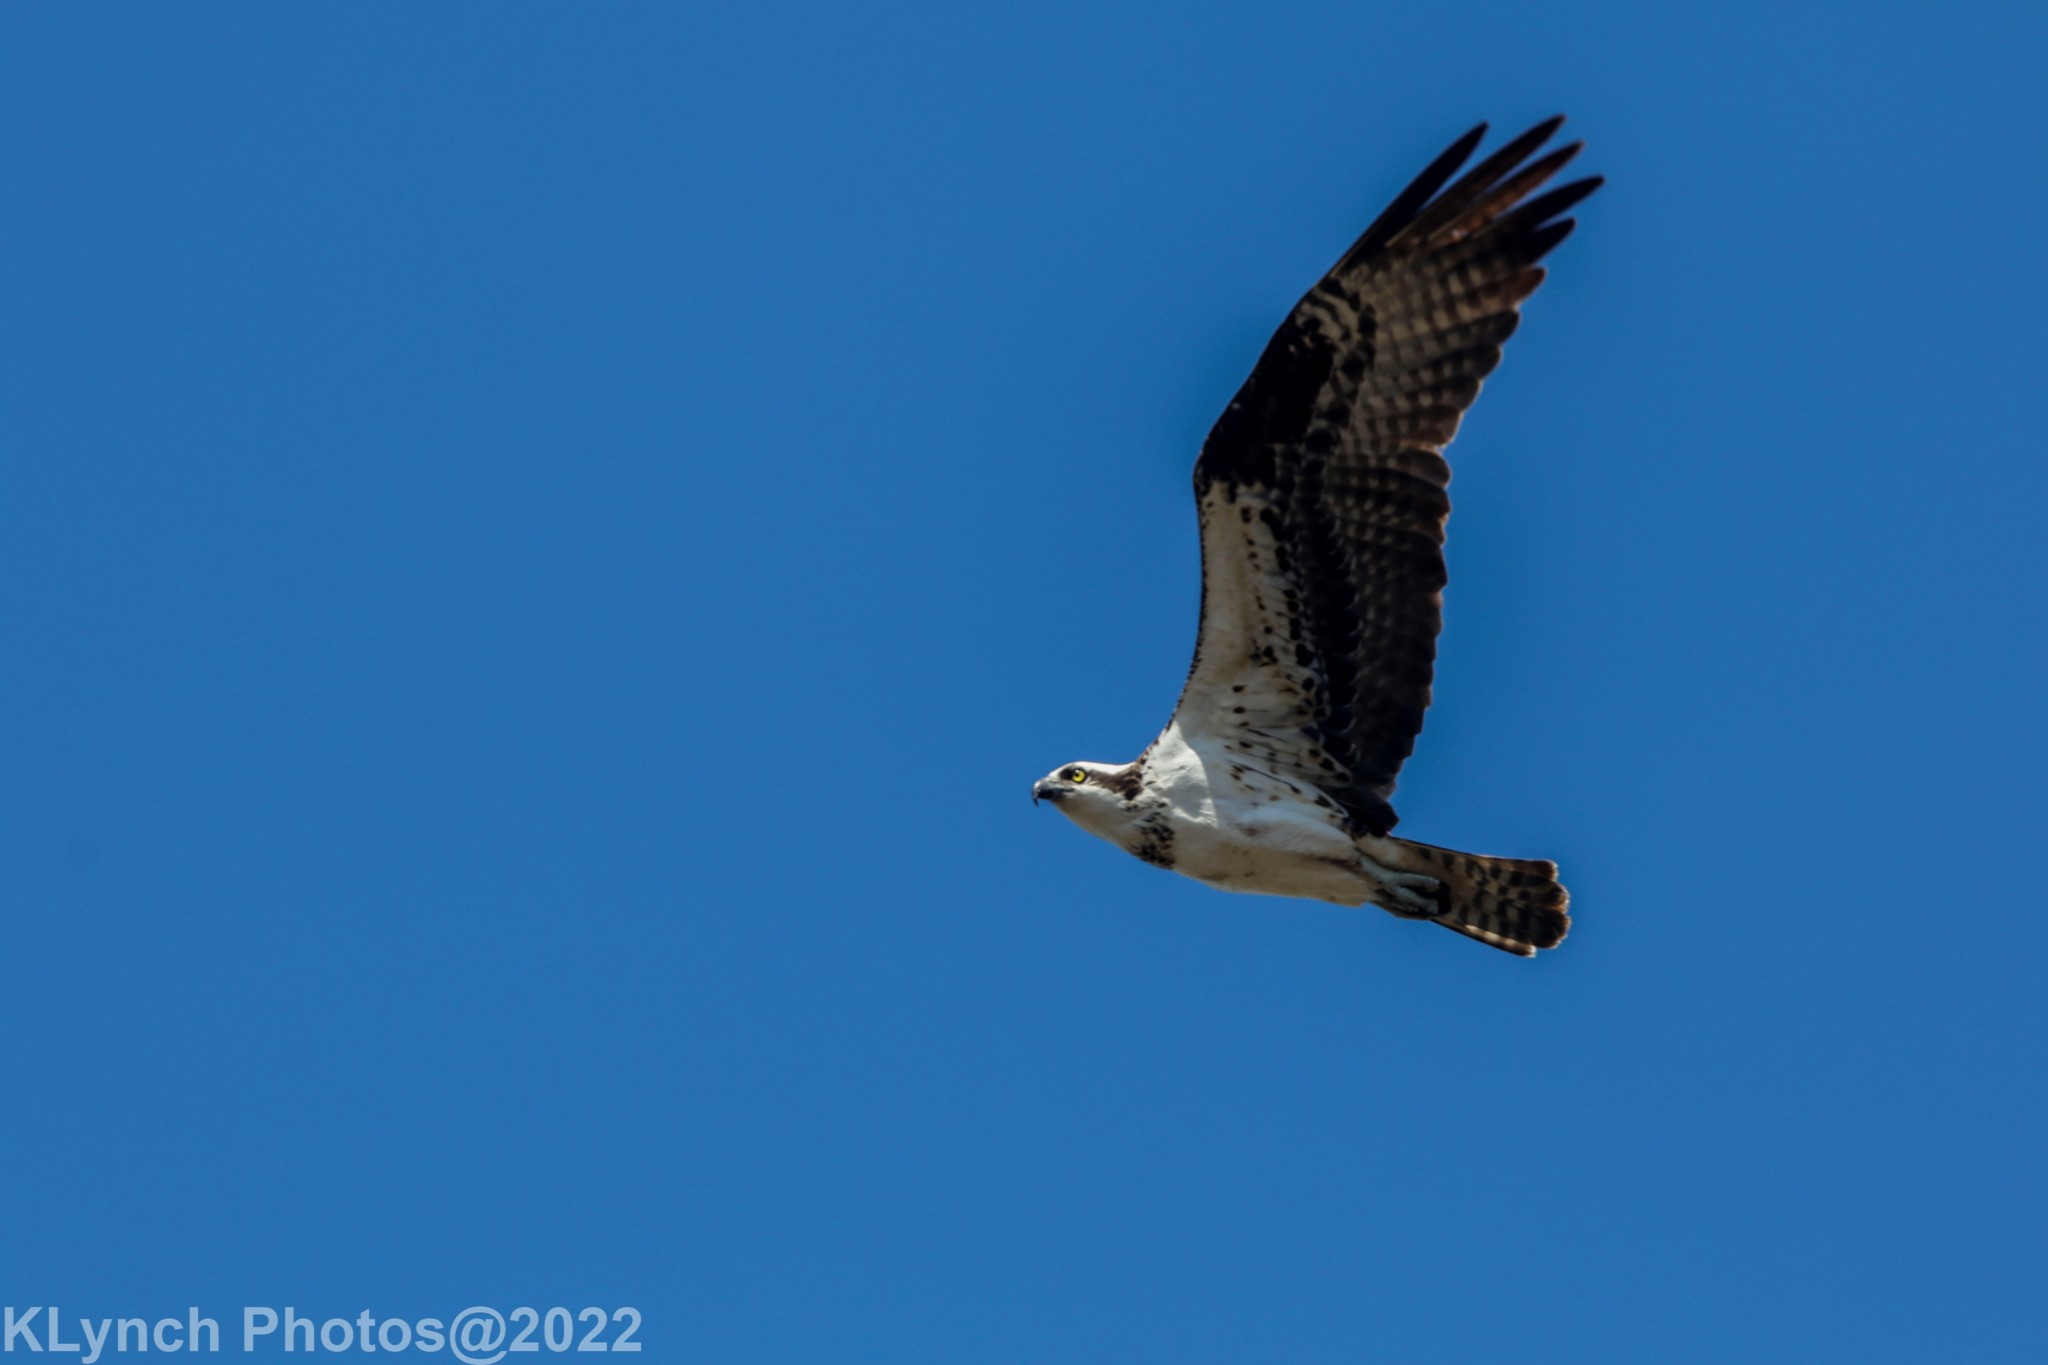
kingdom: Animalia
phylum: Chordata
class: Aves
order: Accipitriformes
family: Pandionidae
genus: Pandion
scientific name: Pandion haliaetus
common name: Osprey
